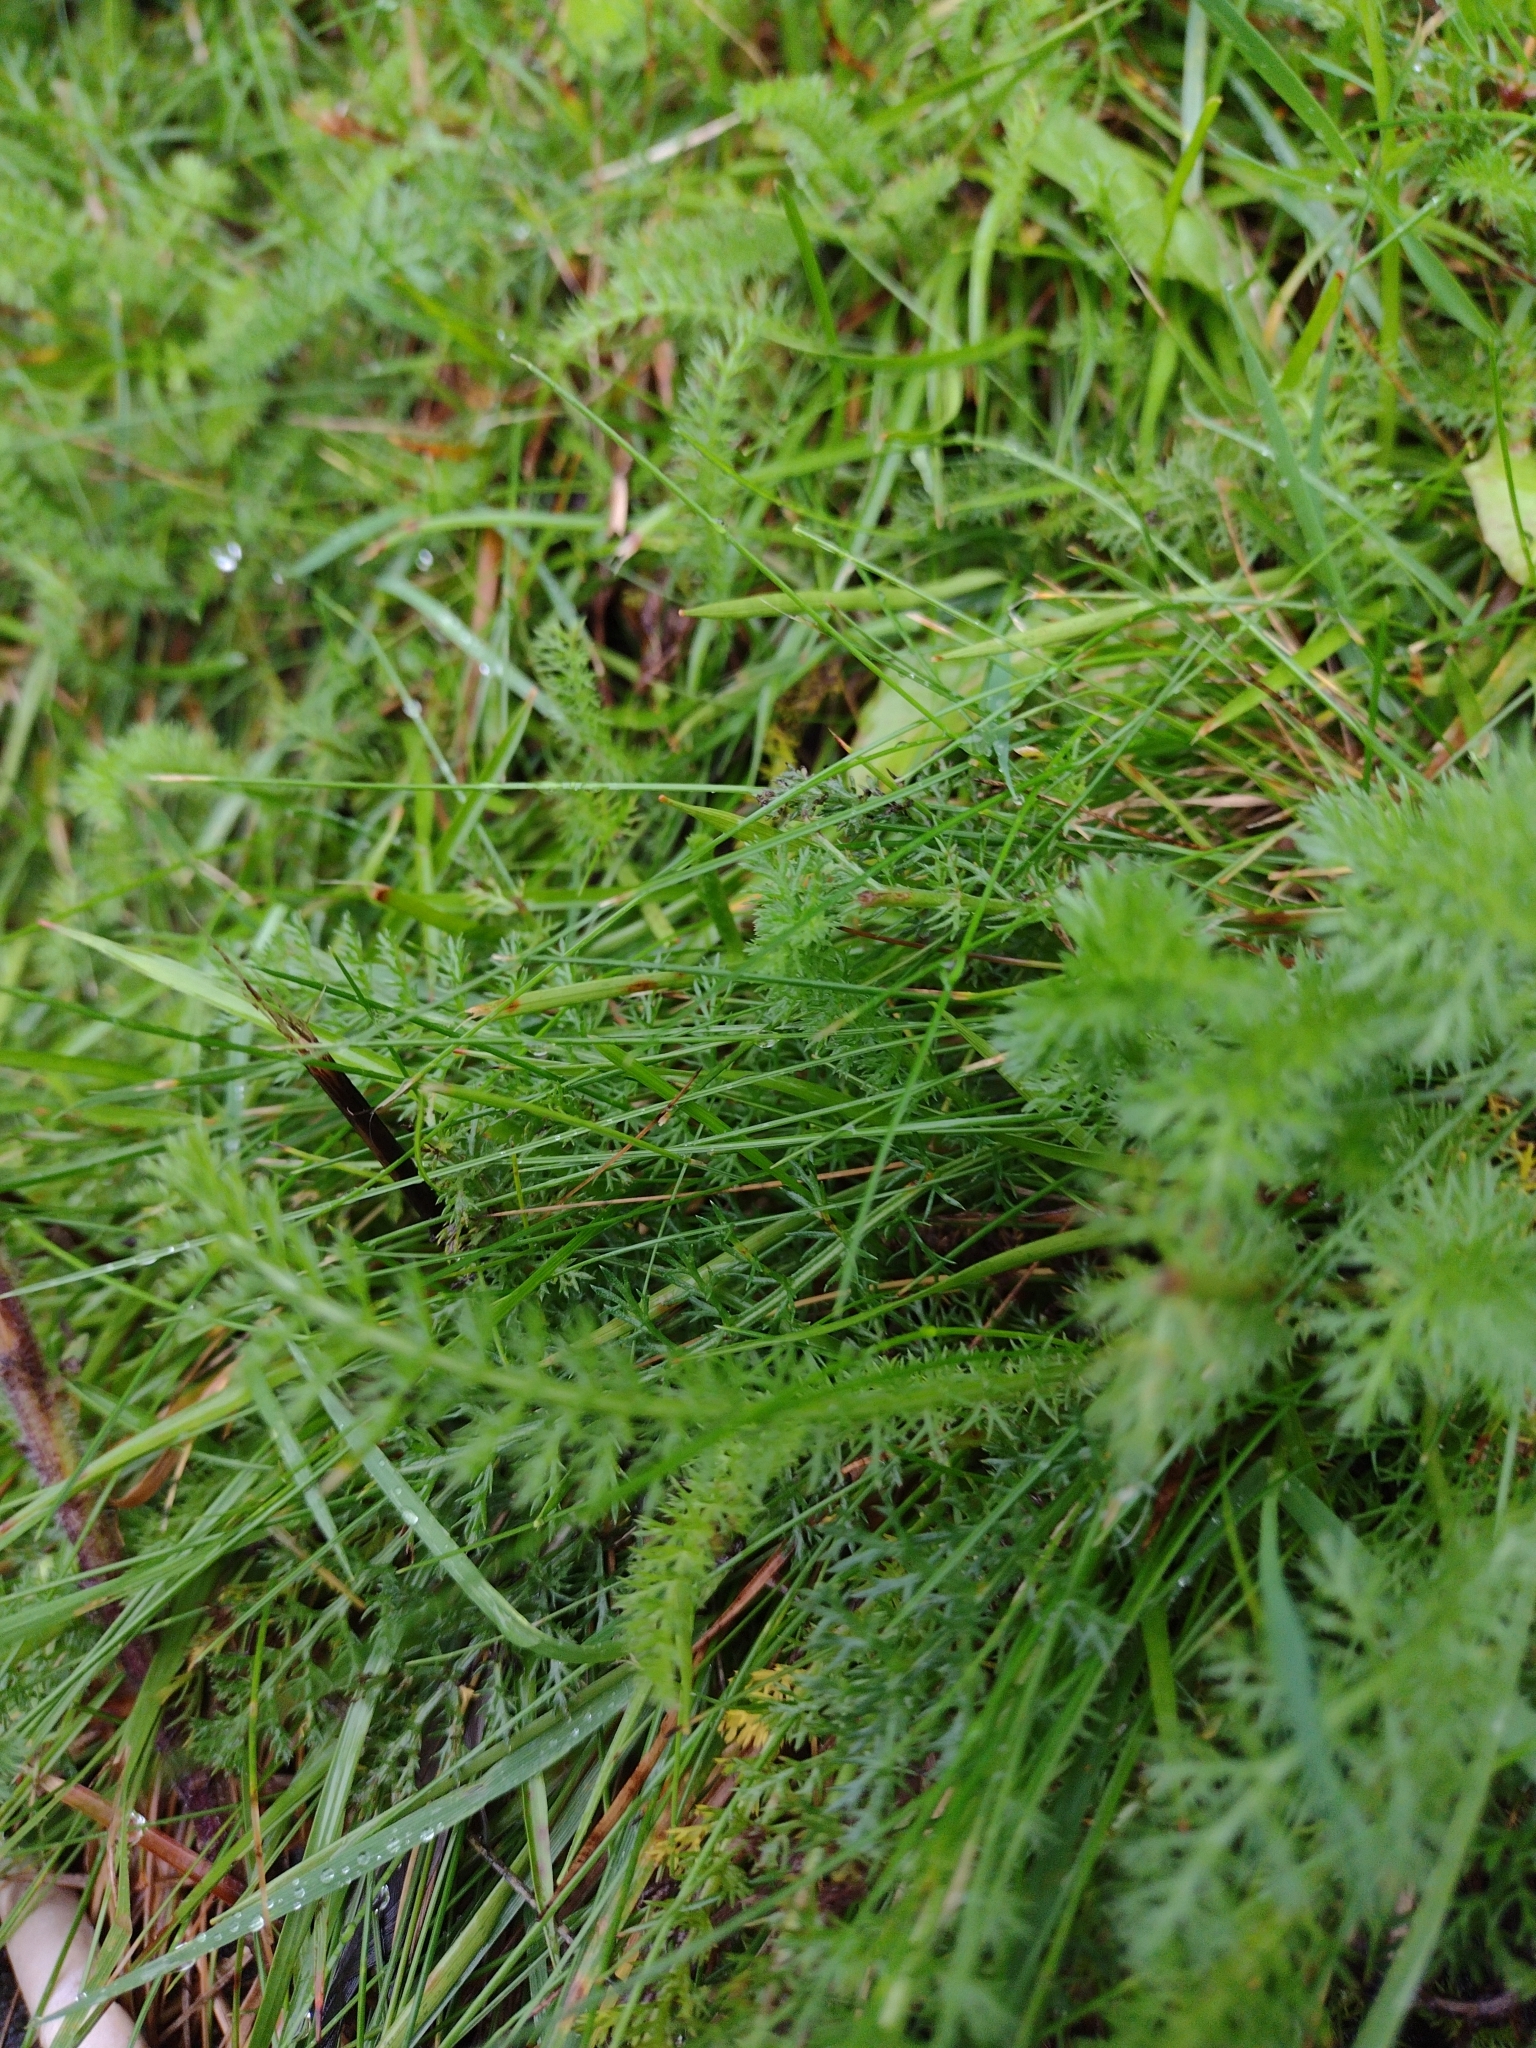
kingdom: Plantae
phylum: Tracheophyta
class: Magnoliopsida
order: Asterales
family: Asteraceae
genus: Achillea
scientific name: Achillea millefolium
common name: Yarrow
